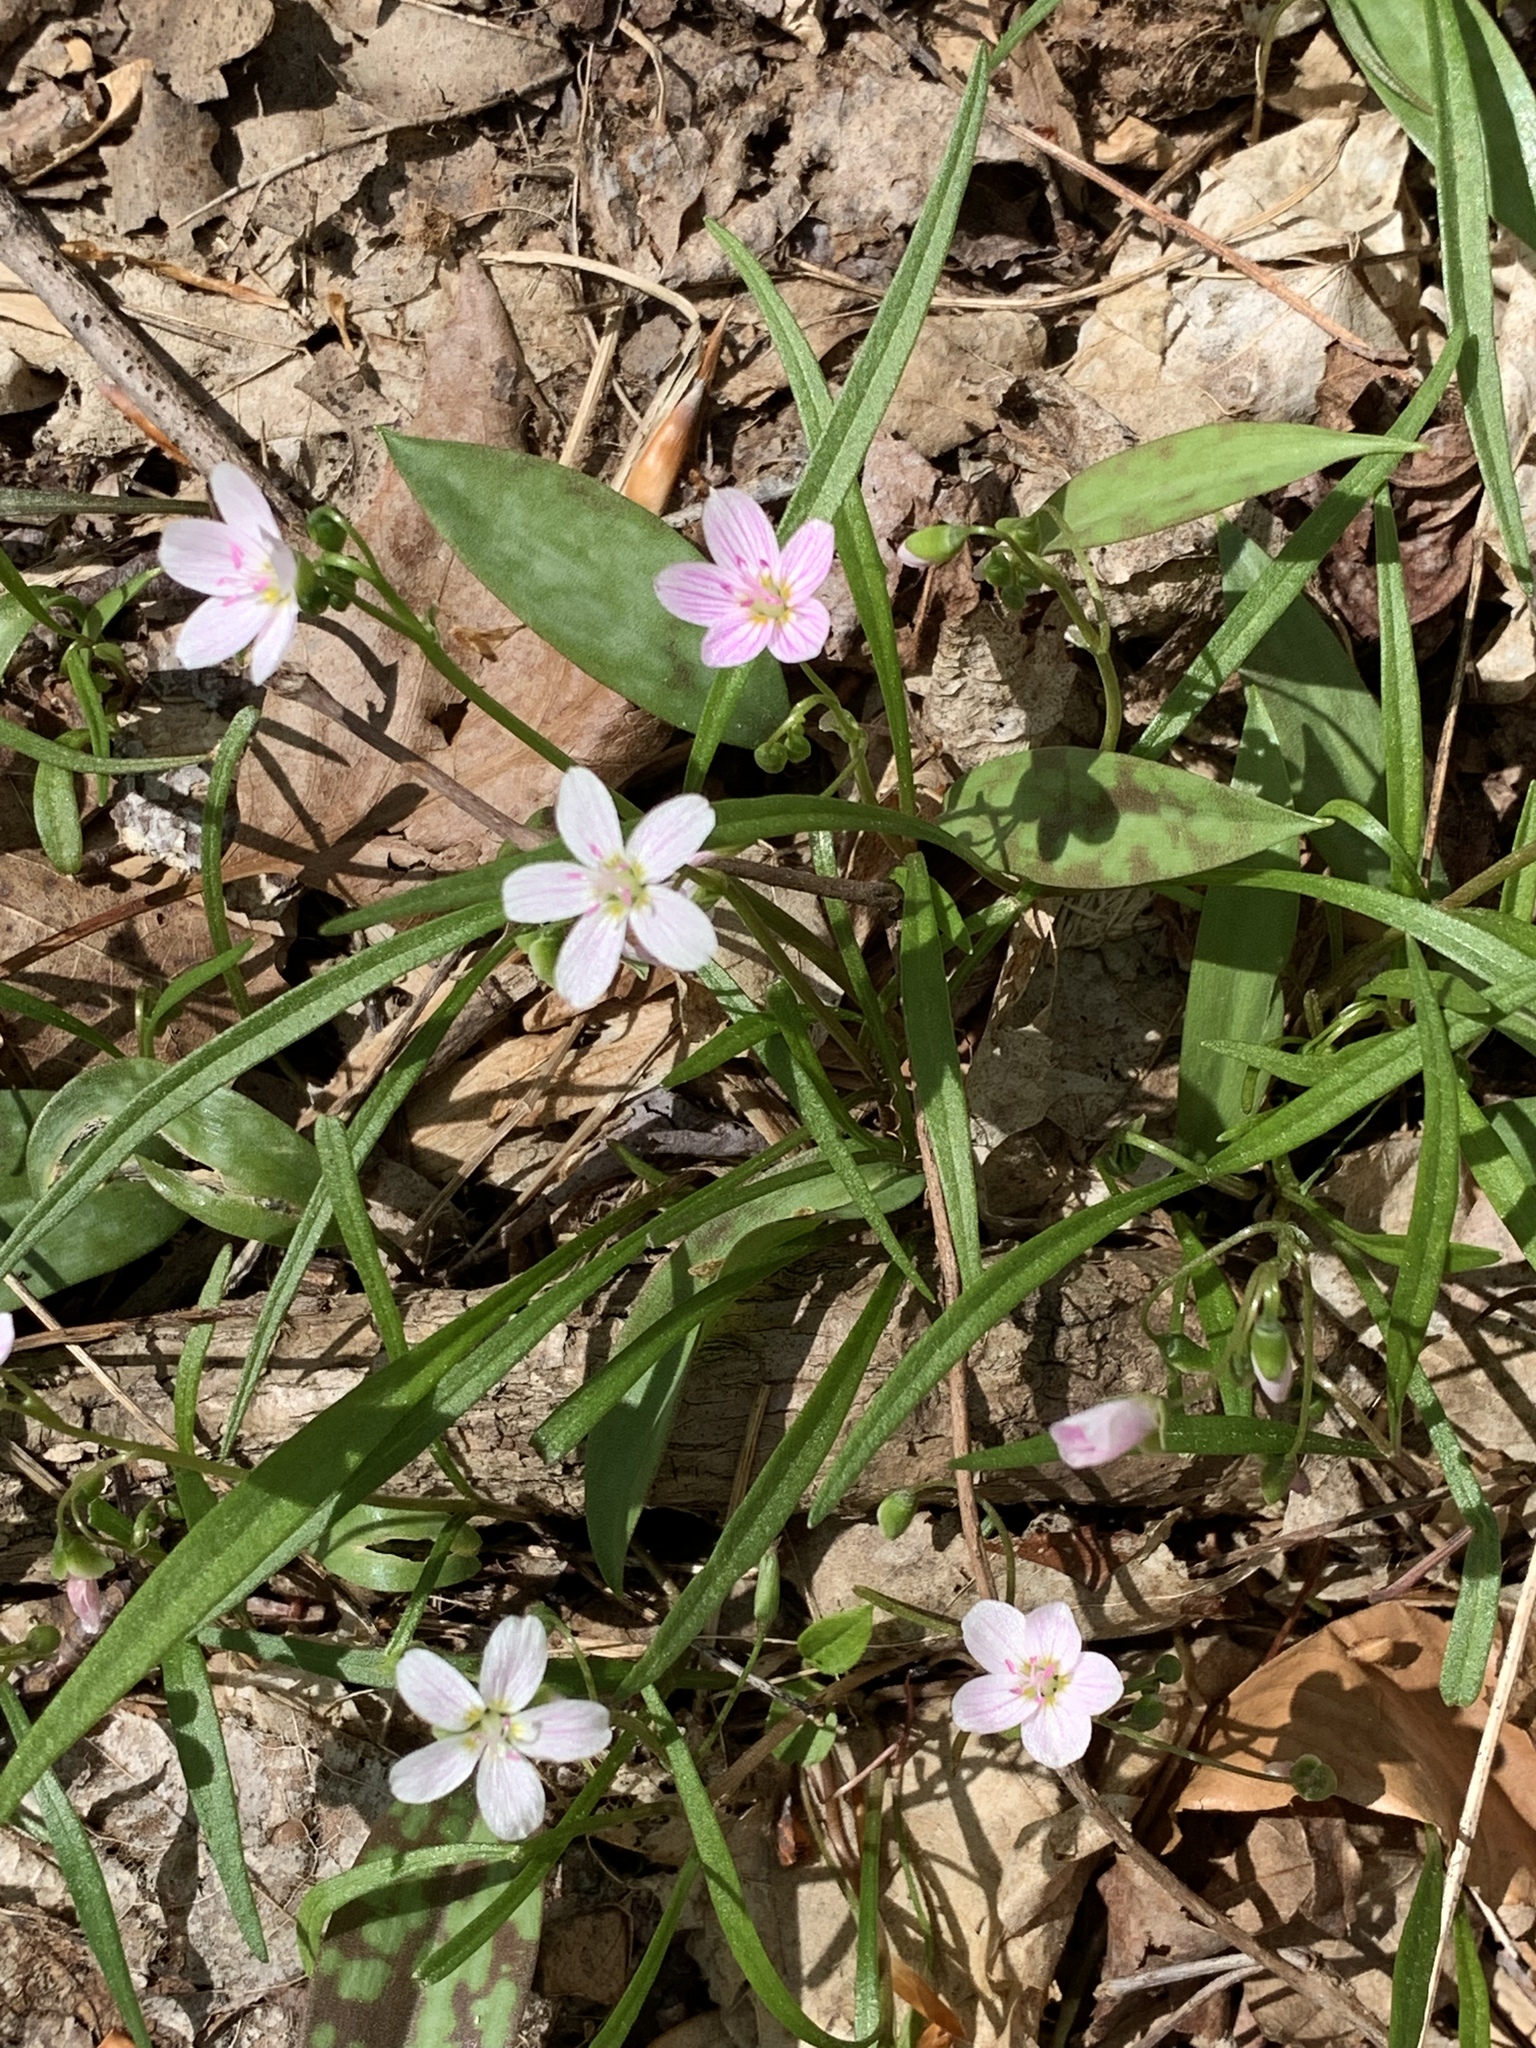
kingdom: Plantae
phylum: Tracheophyta
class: Magnoliopsida
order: Caryophyllales
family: Montiaceae
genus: Claytonia
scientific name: Claytonia virginica
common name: Virginia springbeauty
